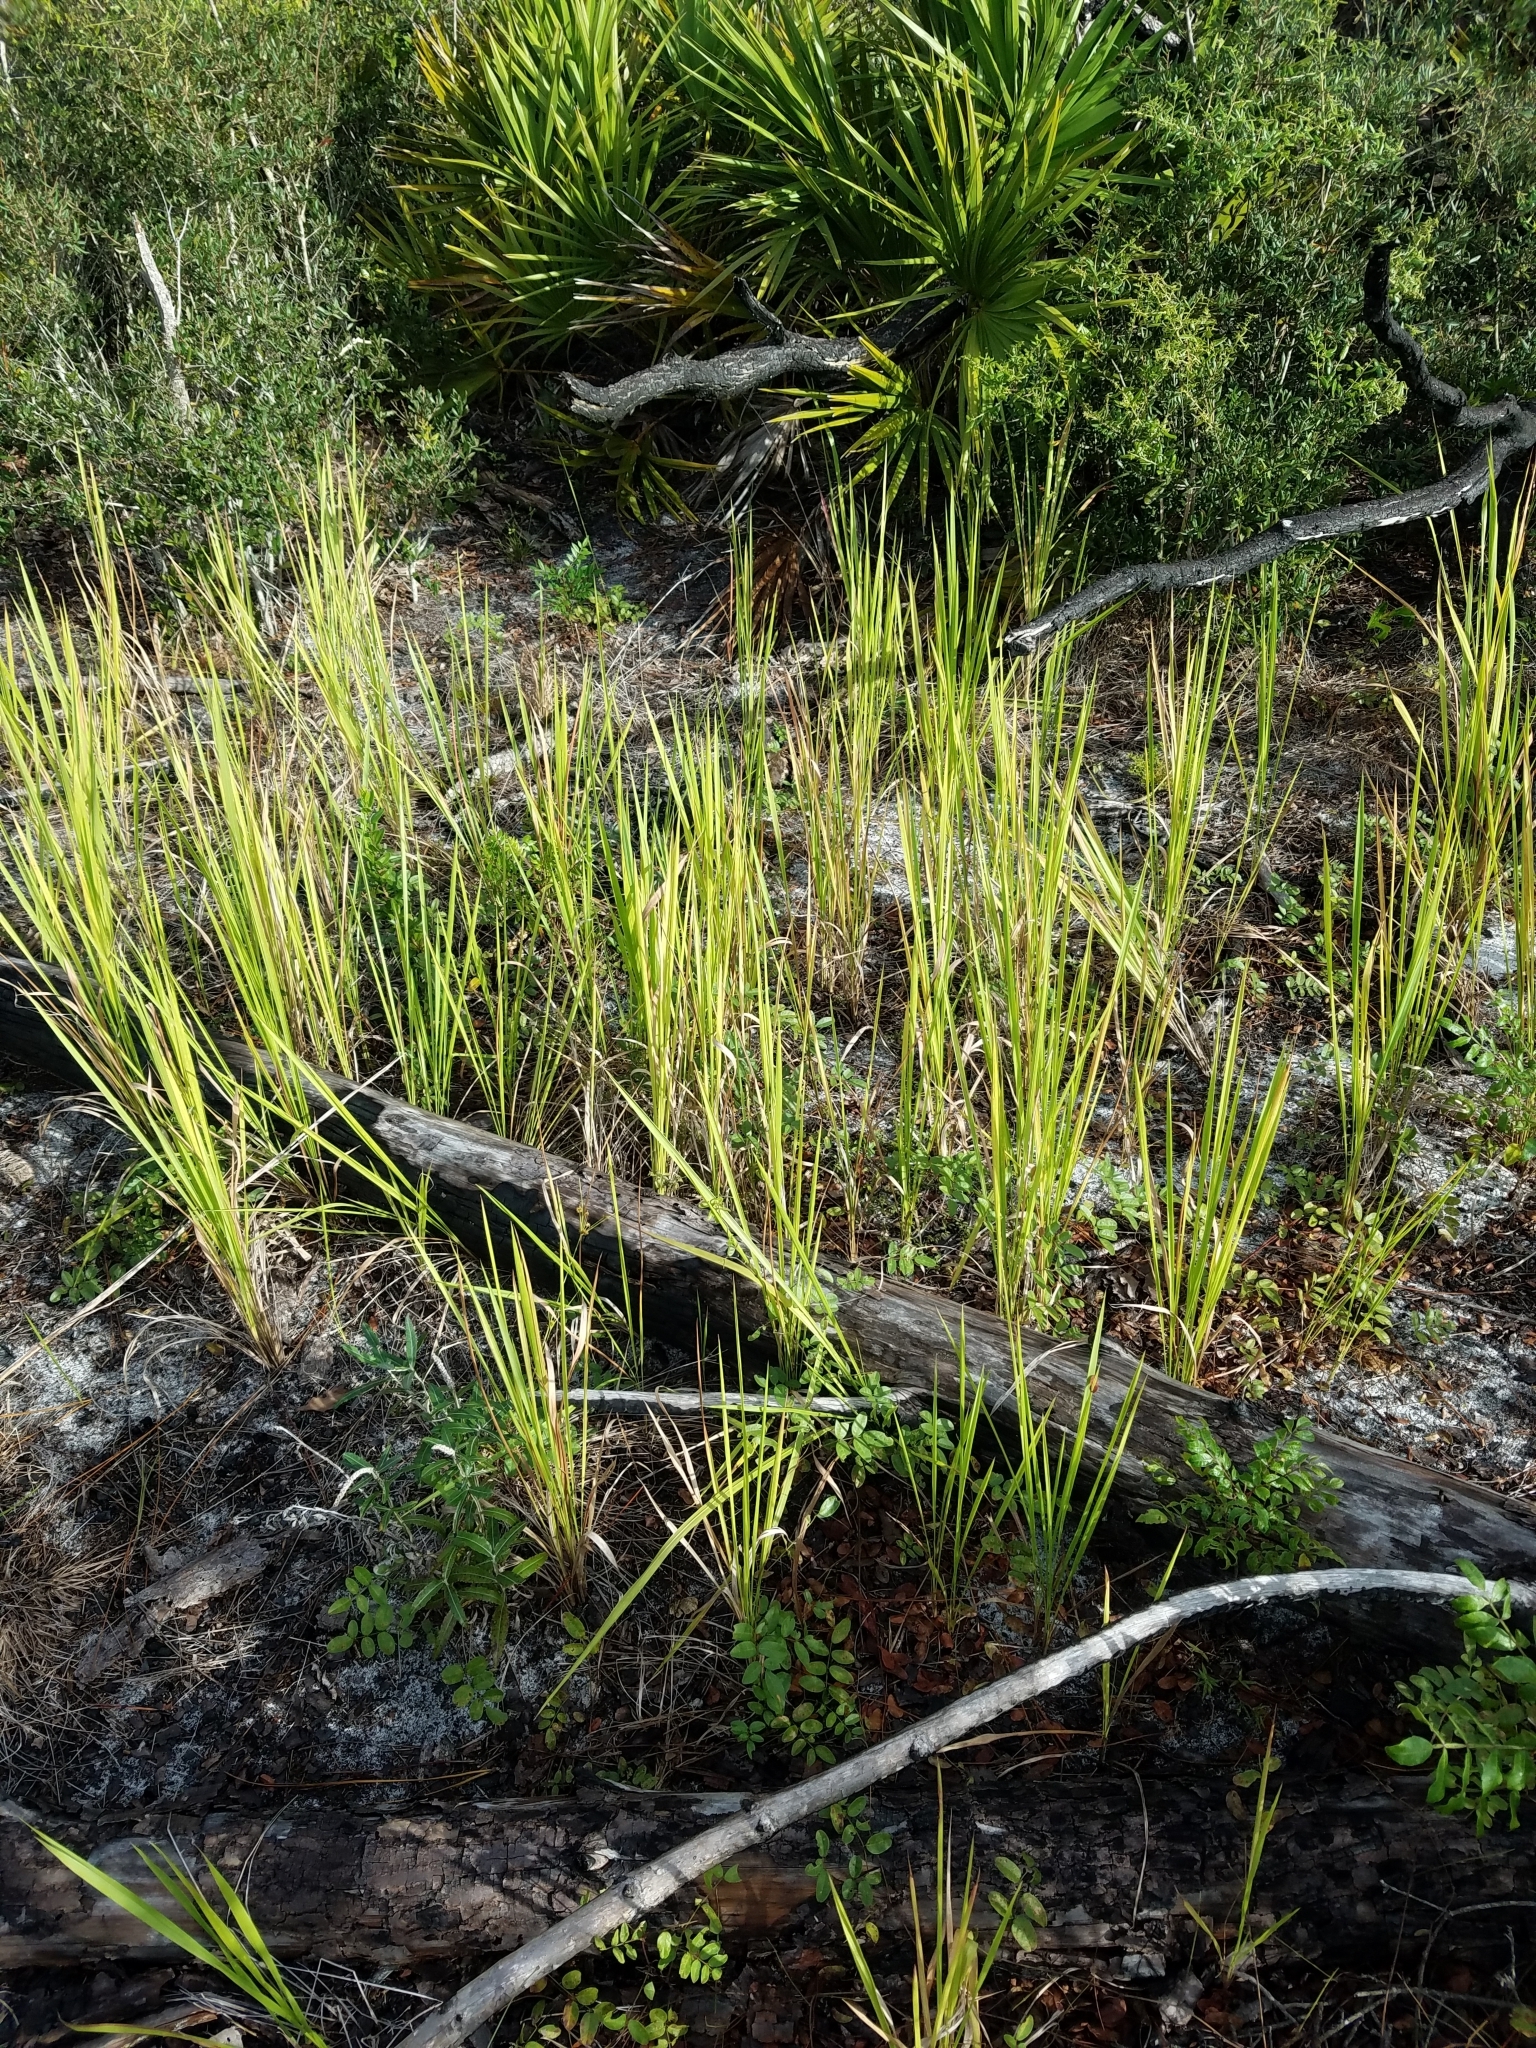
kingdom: Plantae
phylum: Tracheophyta
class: Liliopsida
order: Poales
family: Poaceae
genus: Imperata
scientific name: Imperata cylindrica
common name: Cogongrass
